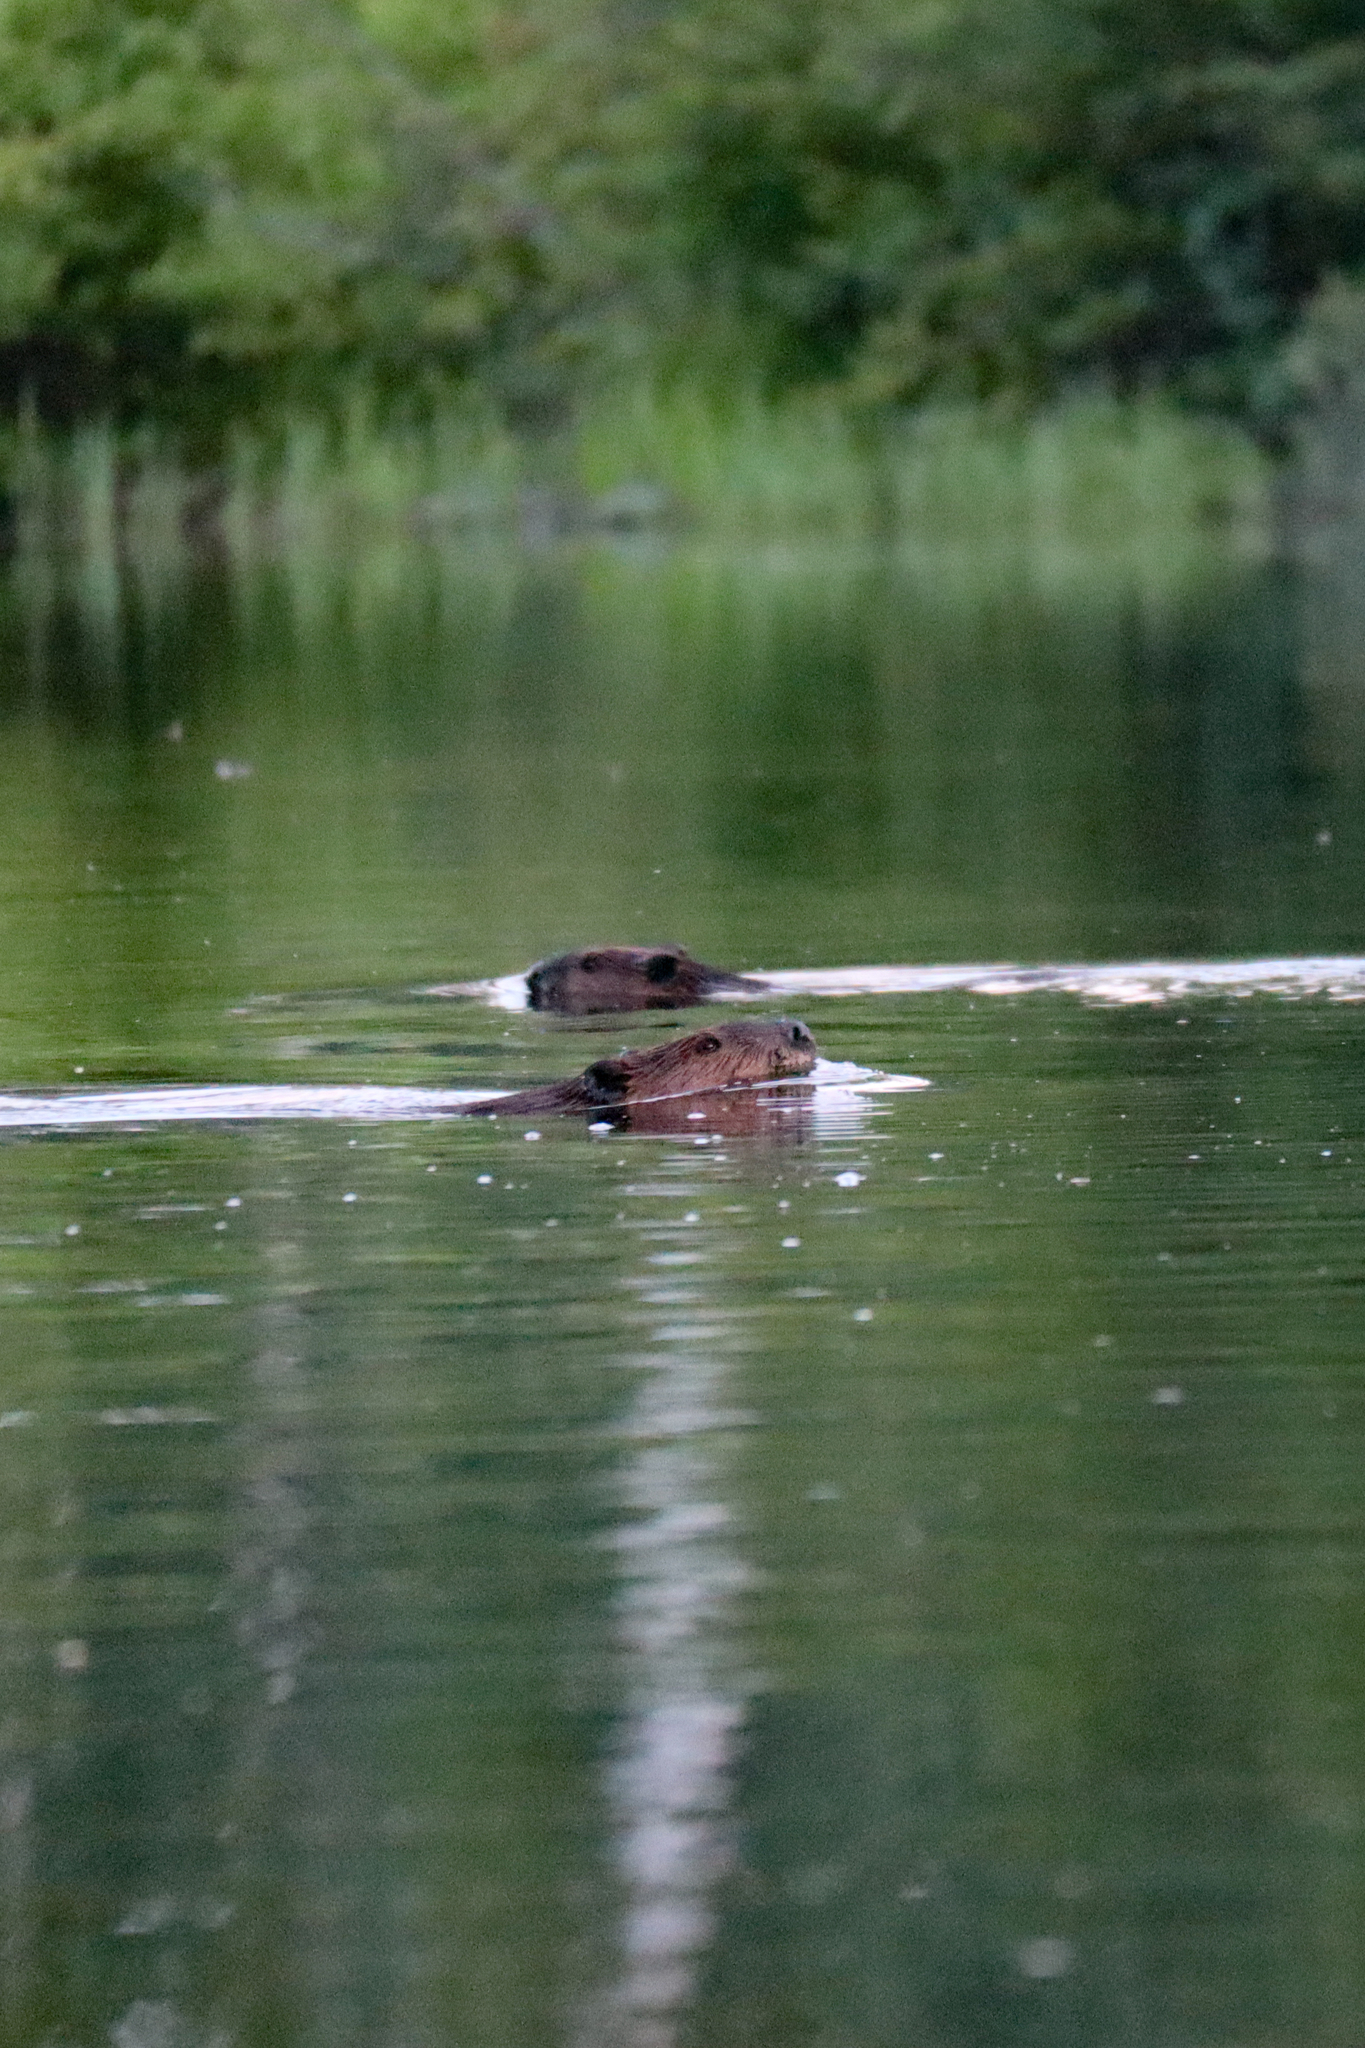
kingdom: Animalia
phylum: Chordata
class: Mammalia
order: Rodentia
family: Castoridae
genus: Castor
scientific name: Castor canadensis
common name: American beaver
